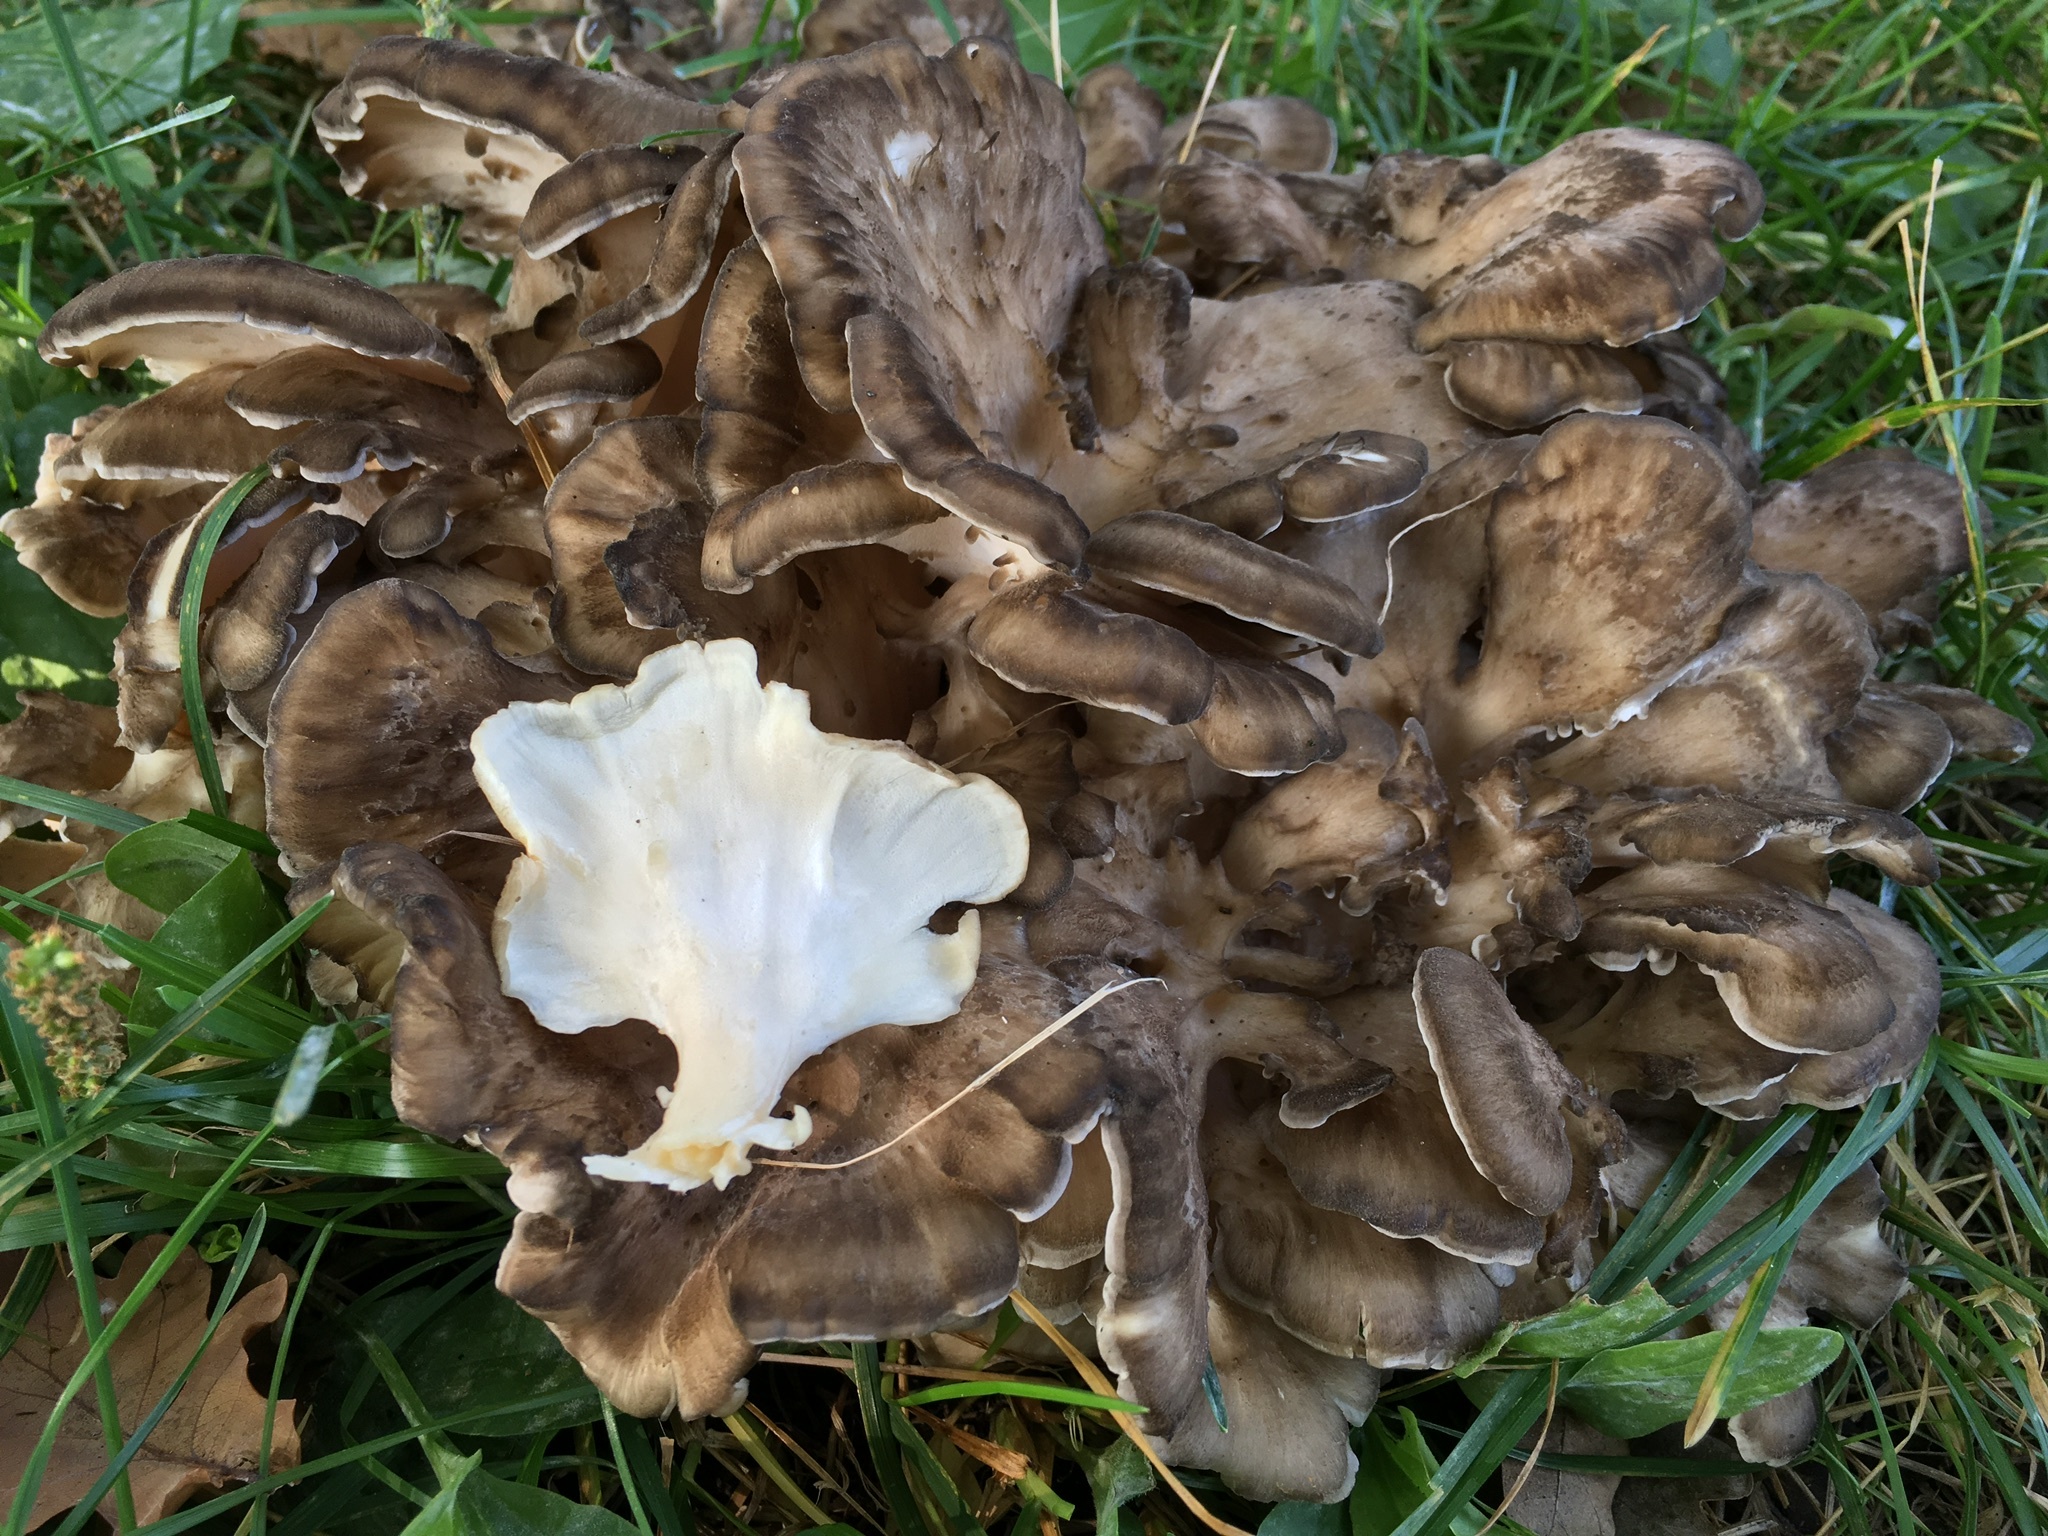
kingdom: Fungi
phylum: Basidiomycota
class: Agaricomycetes
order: Polyporales
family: Grifolaceae
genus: Grifola
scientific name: Grifola frondosa
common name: Hen of the woods
